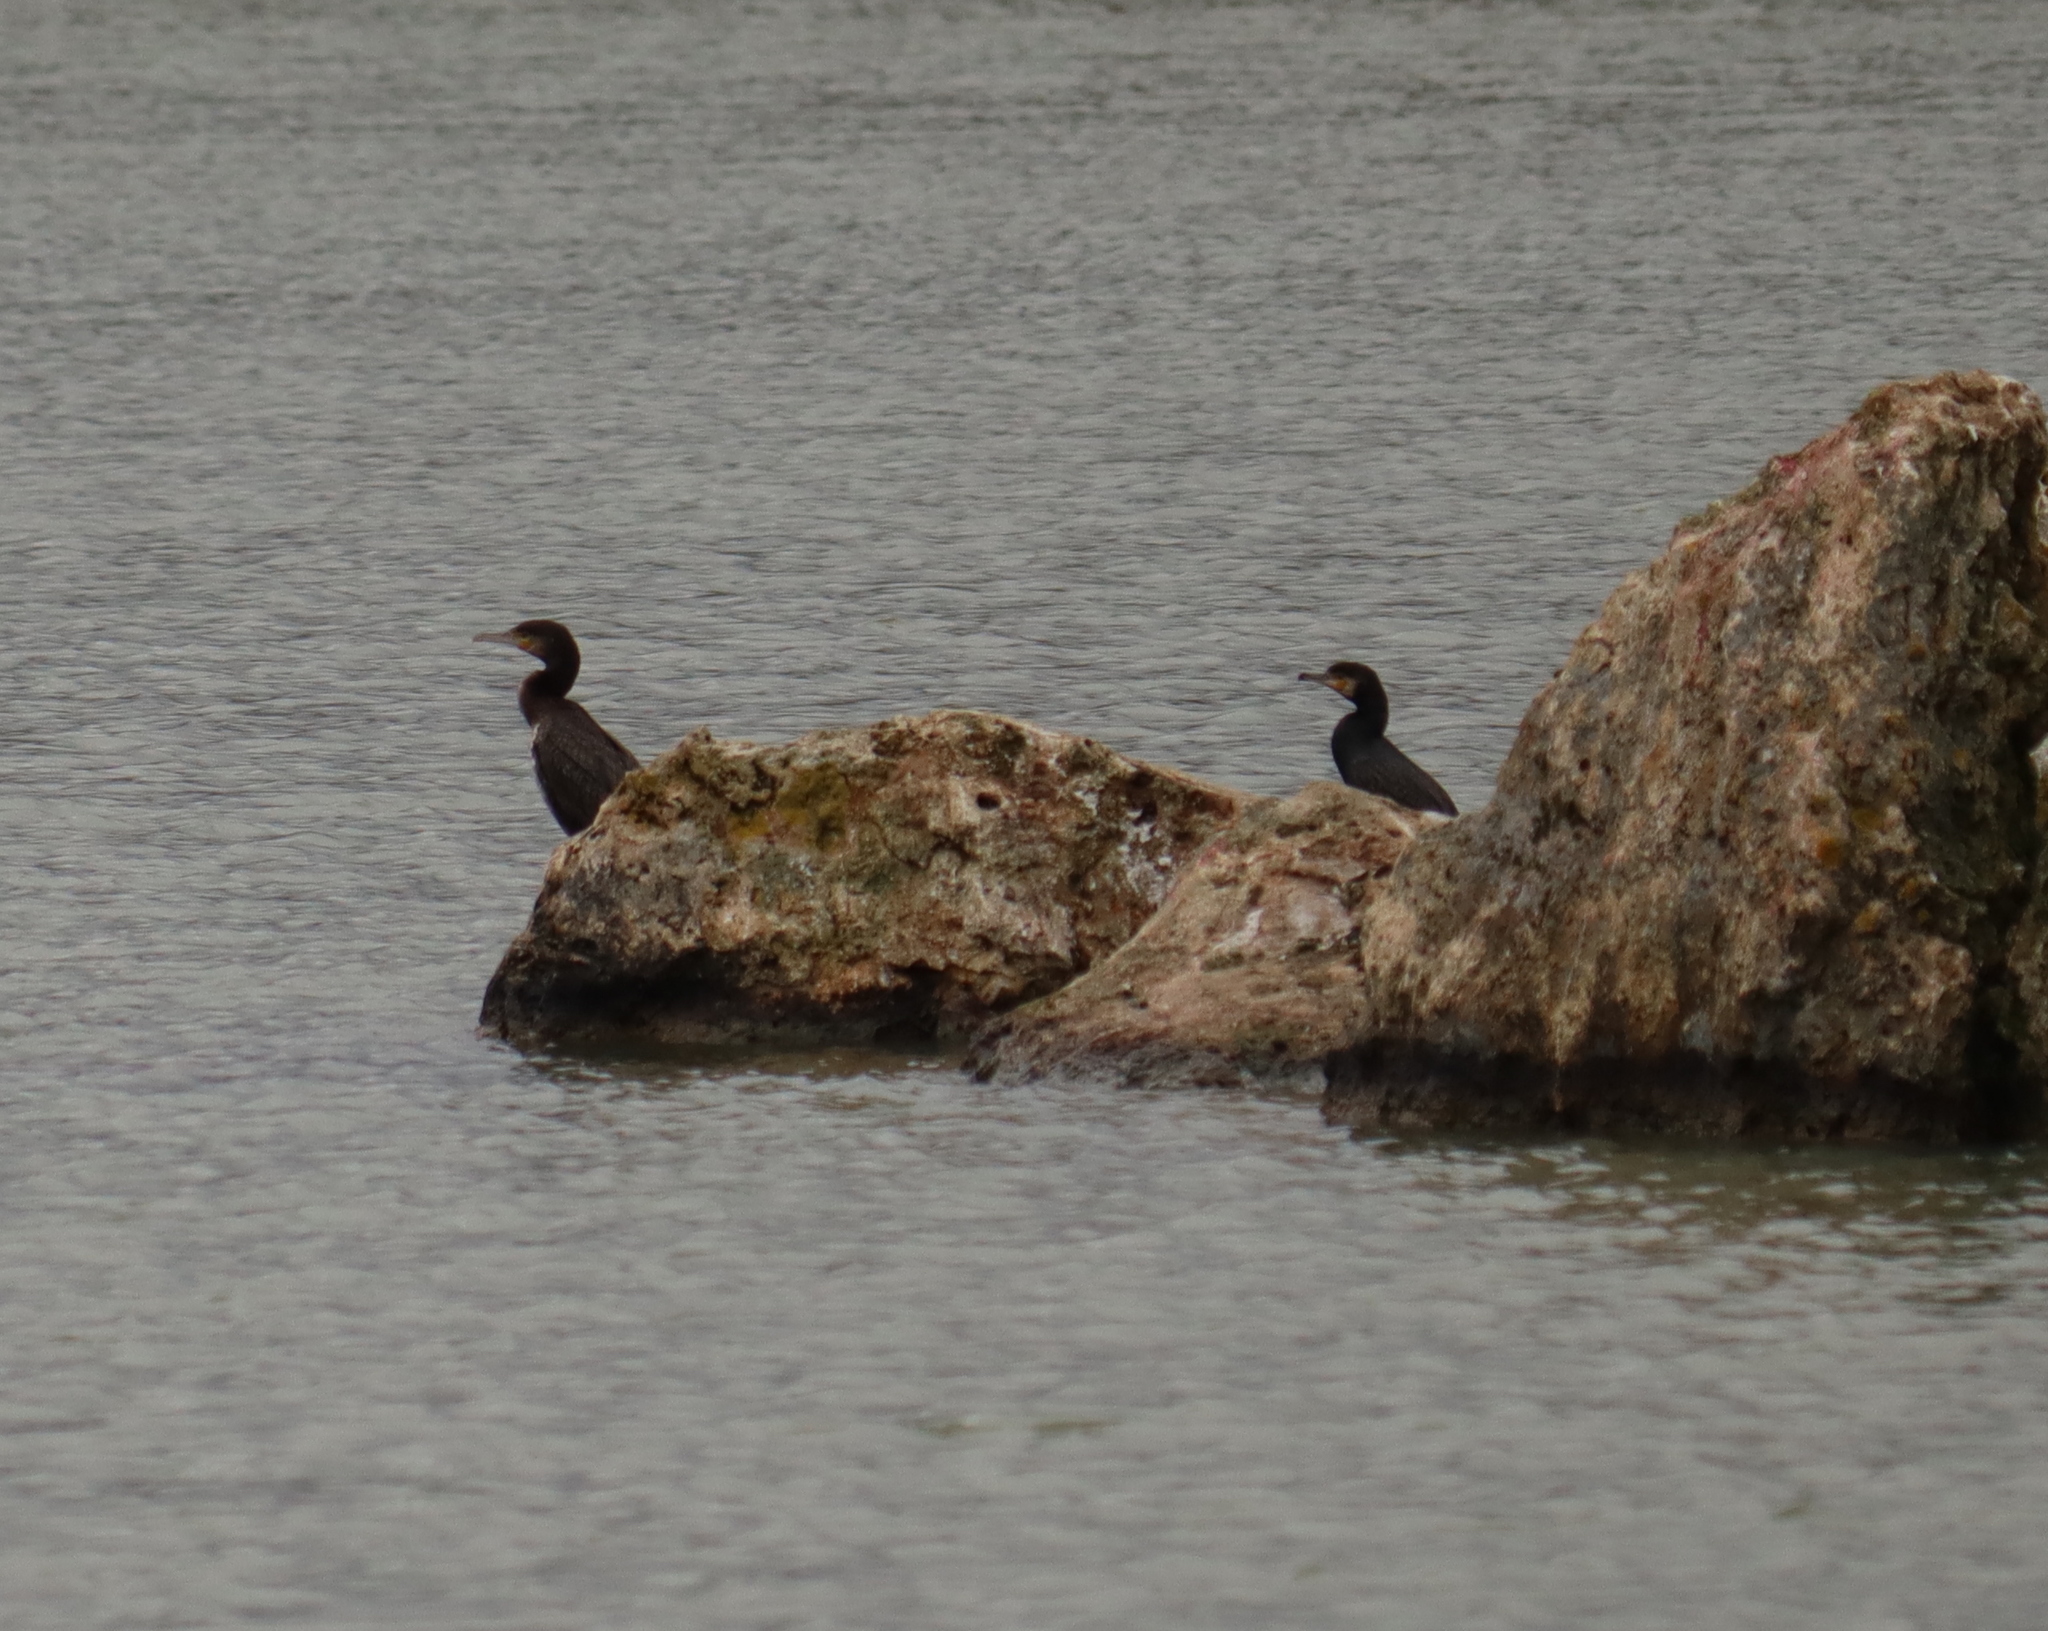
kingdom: Animalia
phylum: Chordata
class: Aves
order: Suliformes
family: Phalacrocoracidae
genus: Phalacrocorax
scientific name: Phalacrocorax carbo
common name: Great cormorant
